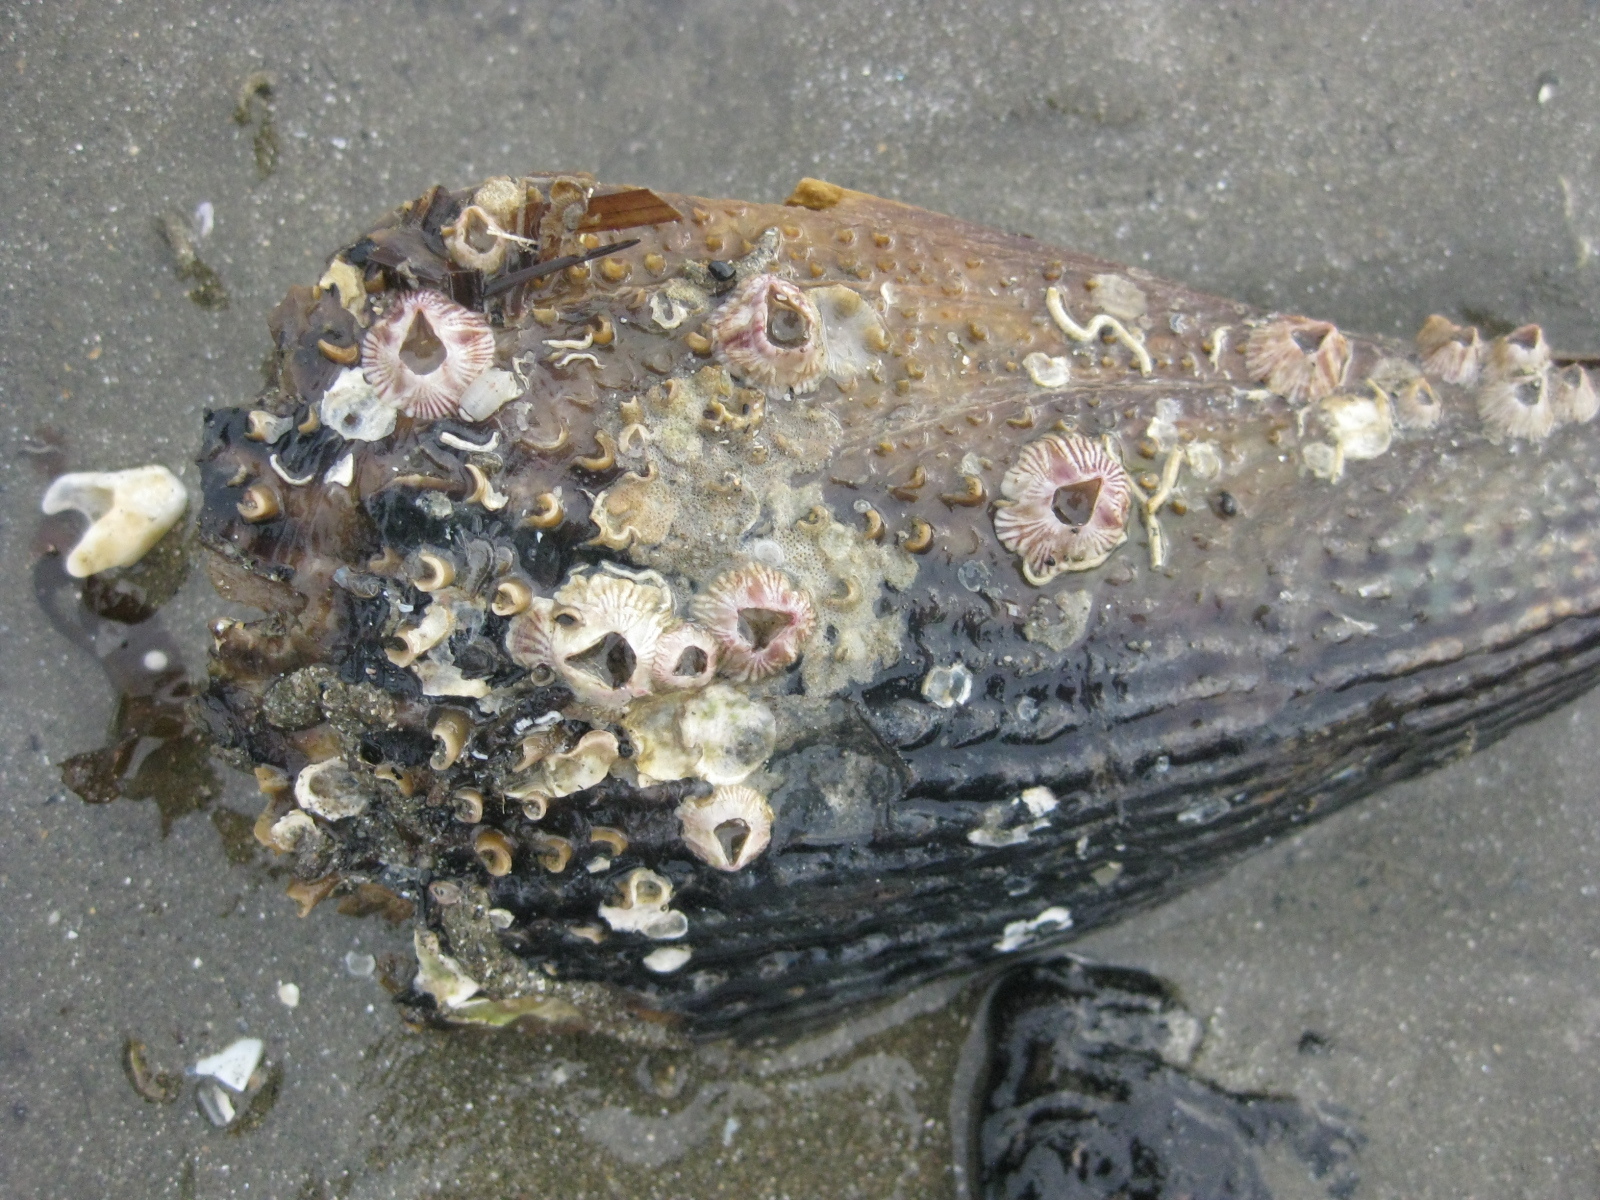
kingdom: Animalia
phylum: Mollusca
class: Bivalvia
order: Ostreida
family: Pinnidae
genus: Atrina
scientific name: Atrina zelandica
